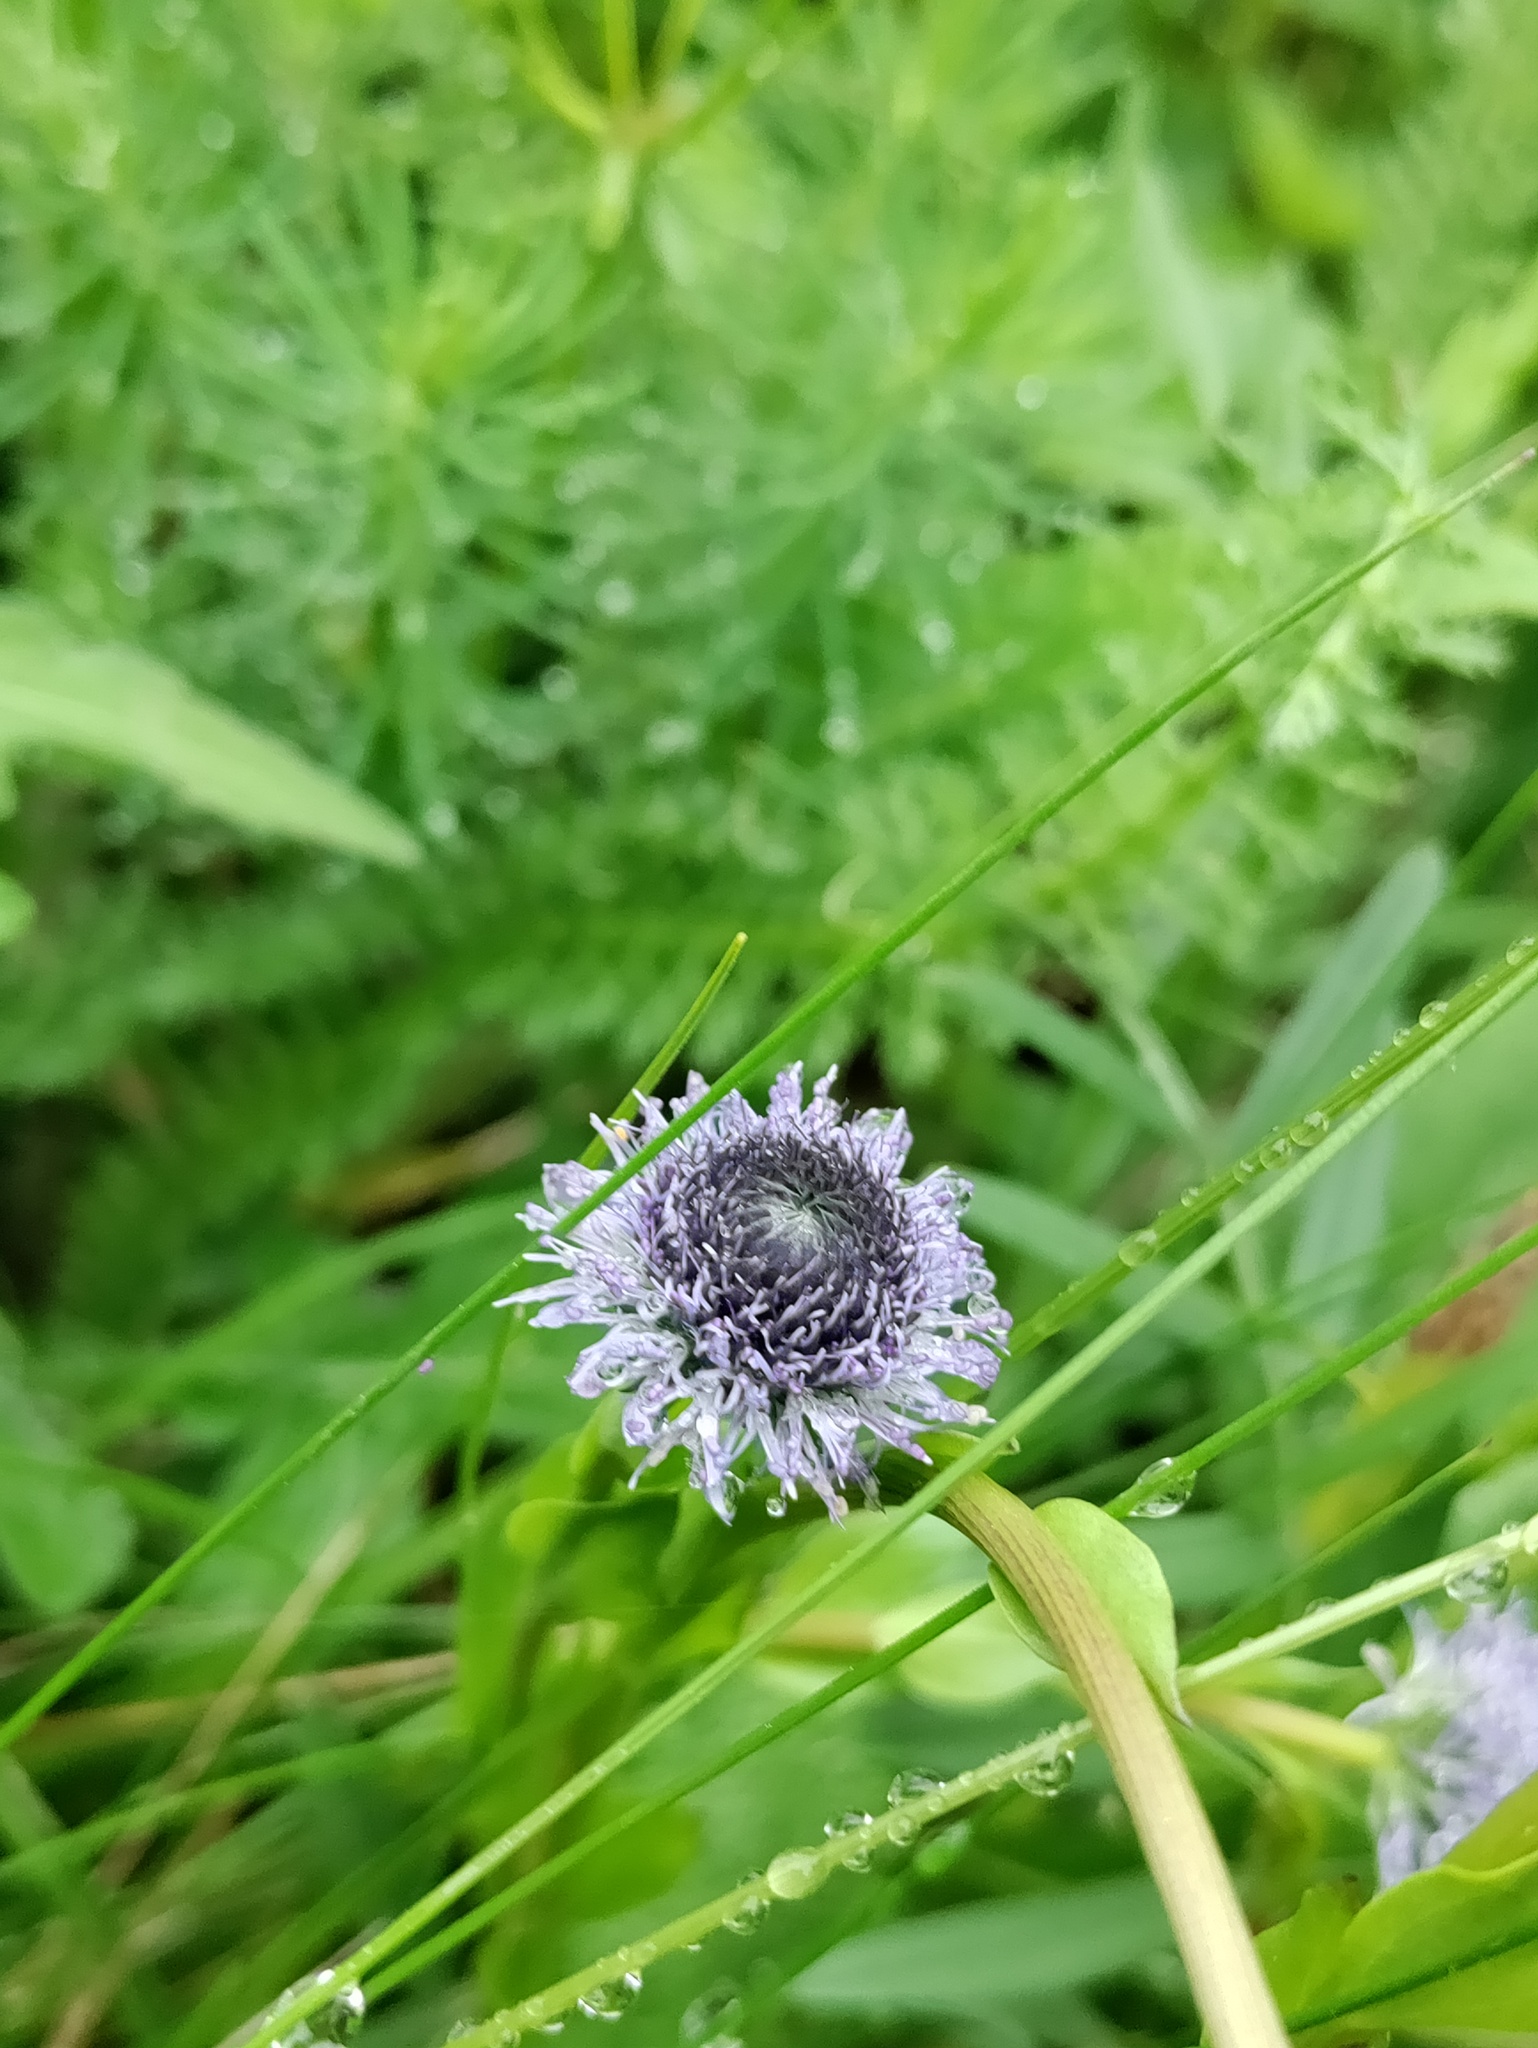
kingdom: Plantae
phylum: Tracheophyta
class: Magnoliopsida
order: Lamiales
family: Plantaginaceae
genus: Globularia
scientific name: Globularia bisnagarica
